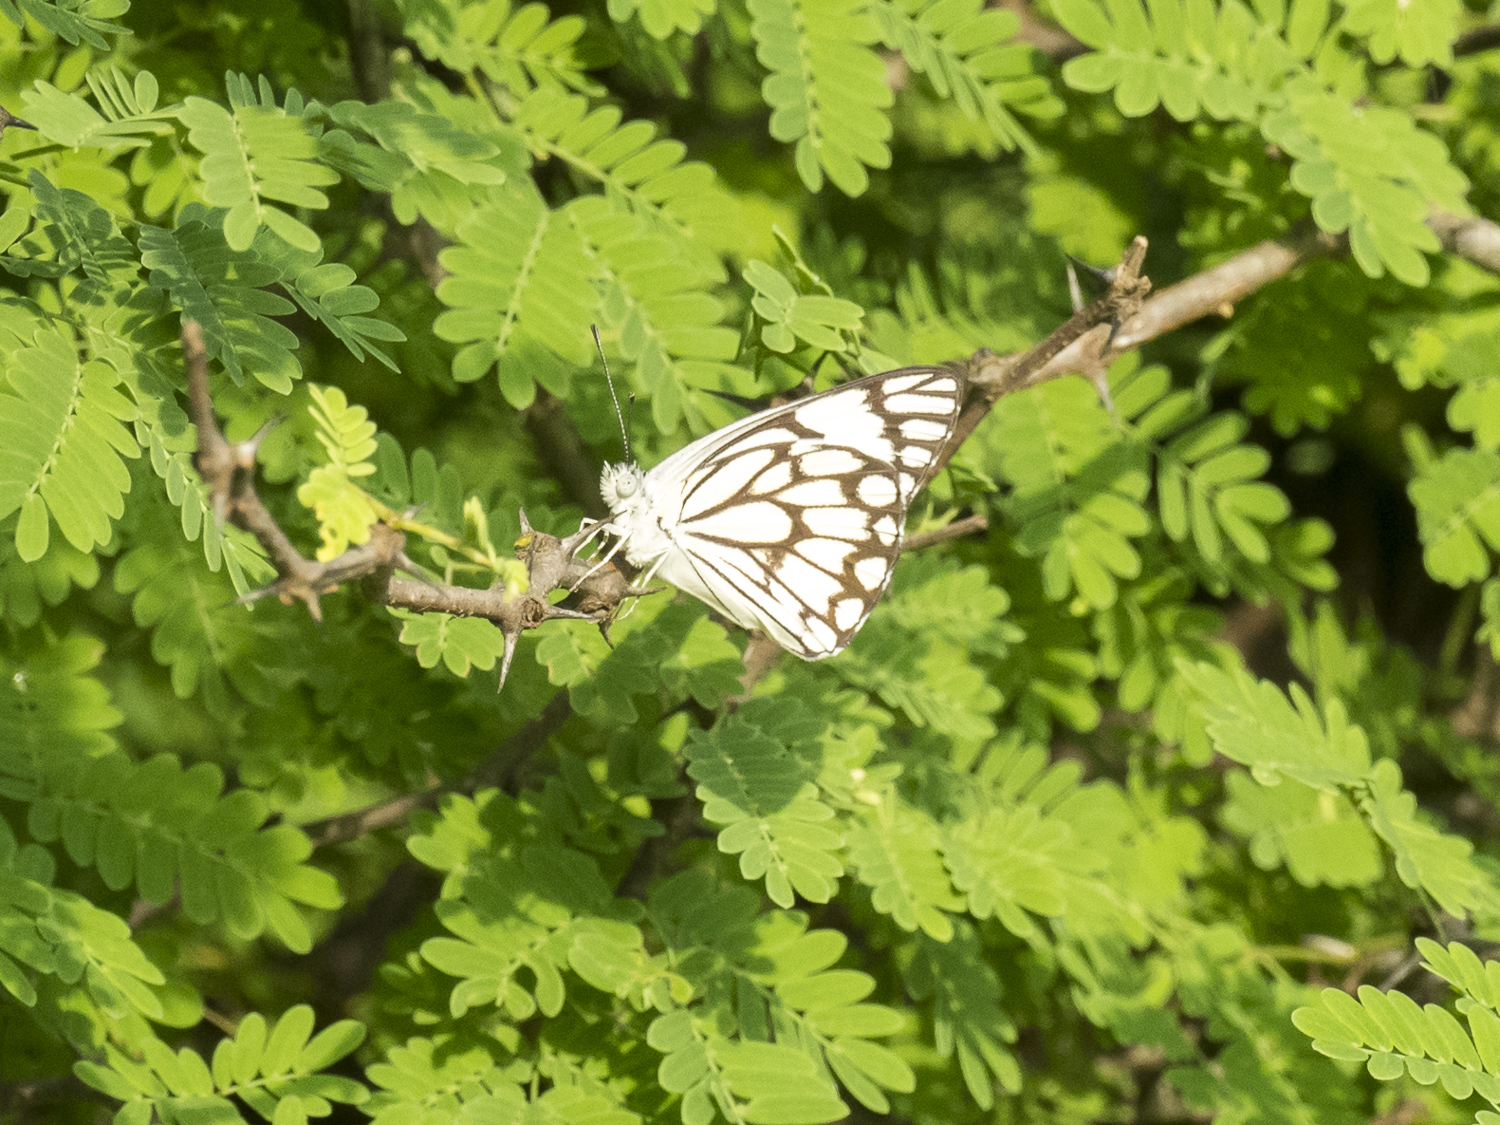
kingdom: Animalia
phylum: Arthropoda
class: Insecta
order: Lepidoptera
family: Pieridae
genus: Belenois
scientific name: Belenois aurota
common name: Brown-veined white
